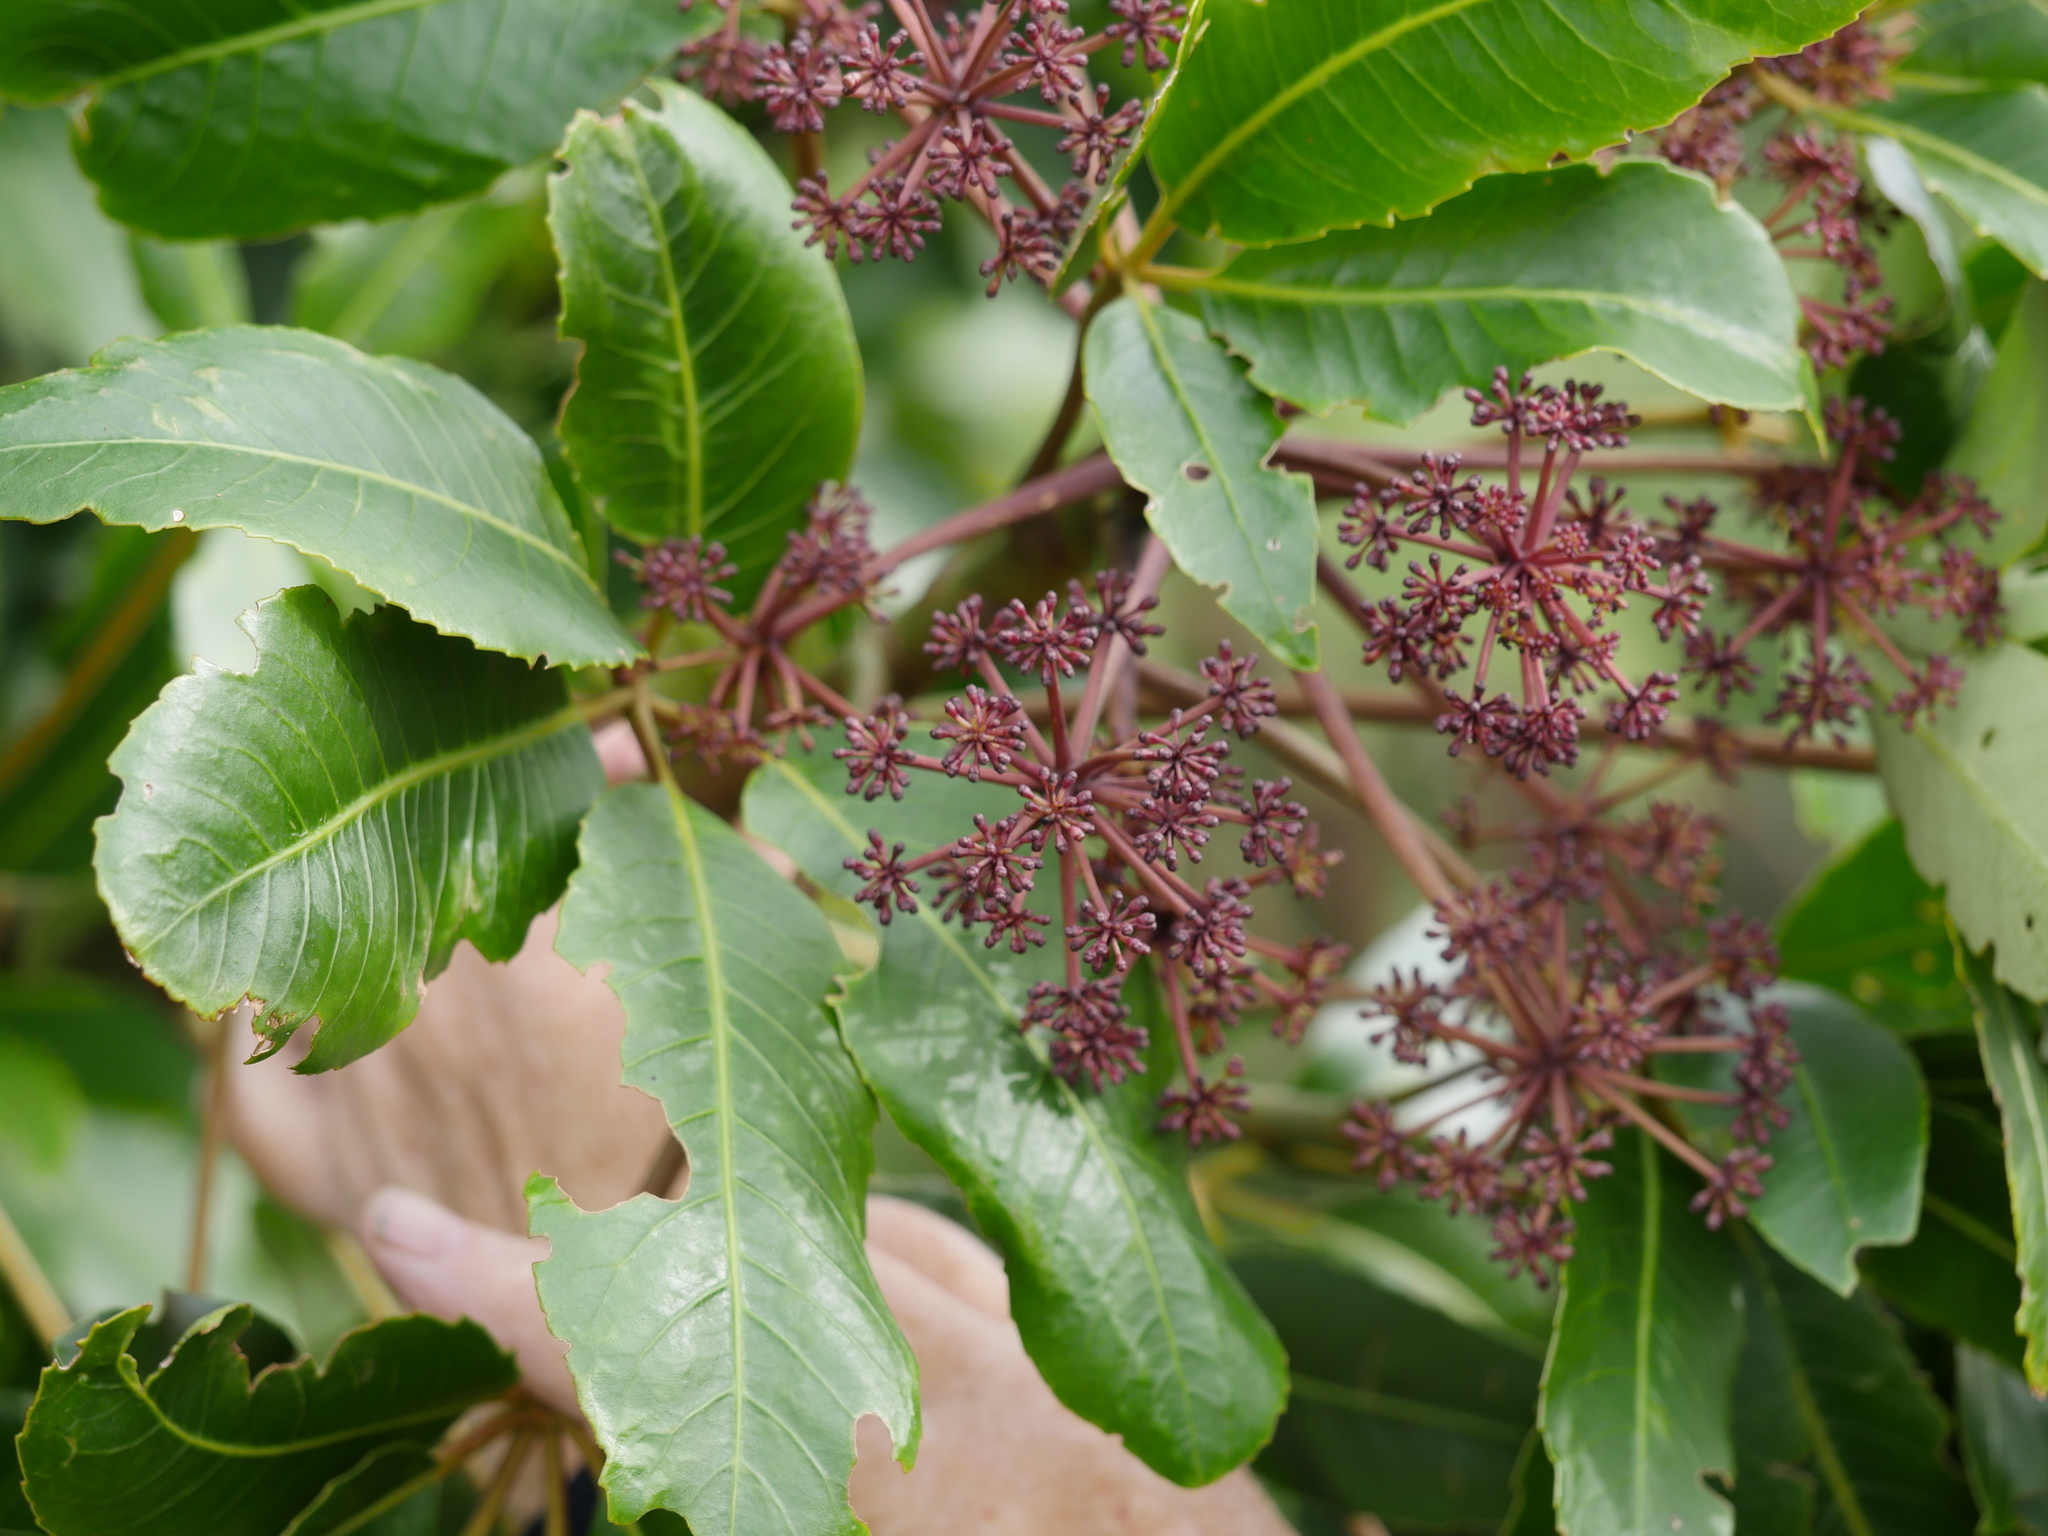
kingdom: Plantae
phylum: Tracheophyta
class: Magnoliopsida
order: Apiales
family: Araliaceae
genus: Neopanax
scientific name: Neopanax arboreus
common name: Five-fingers
